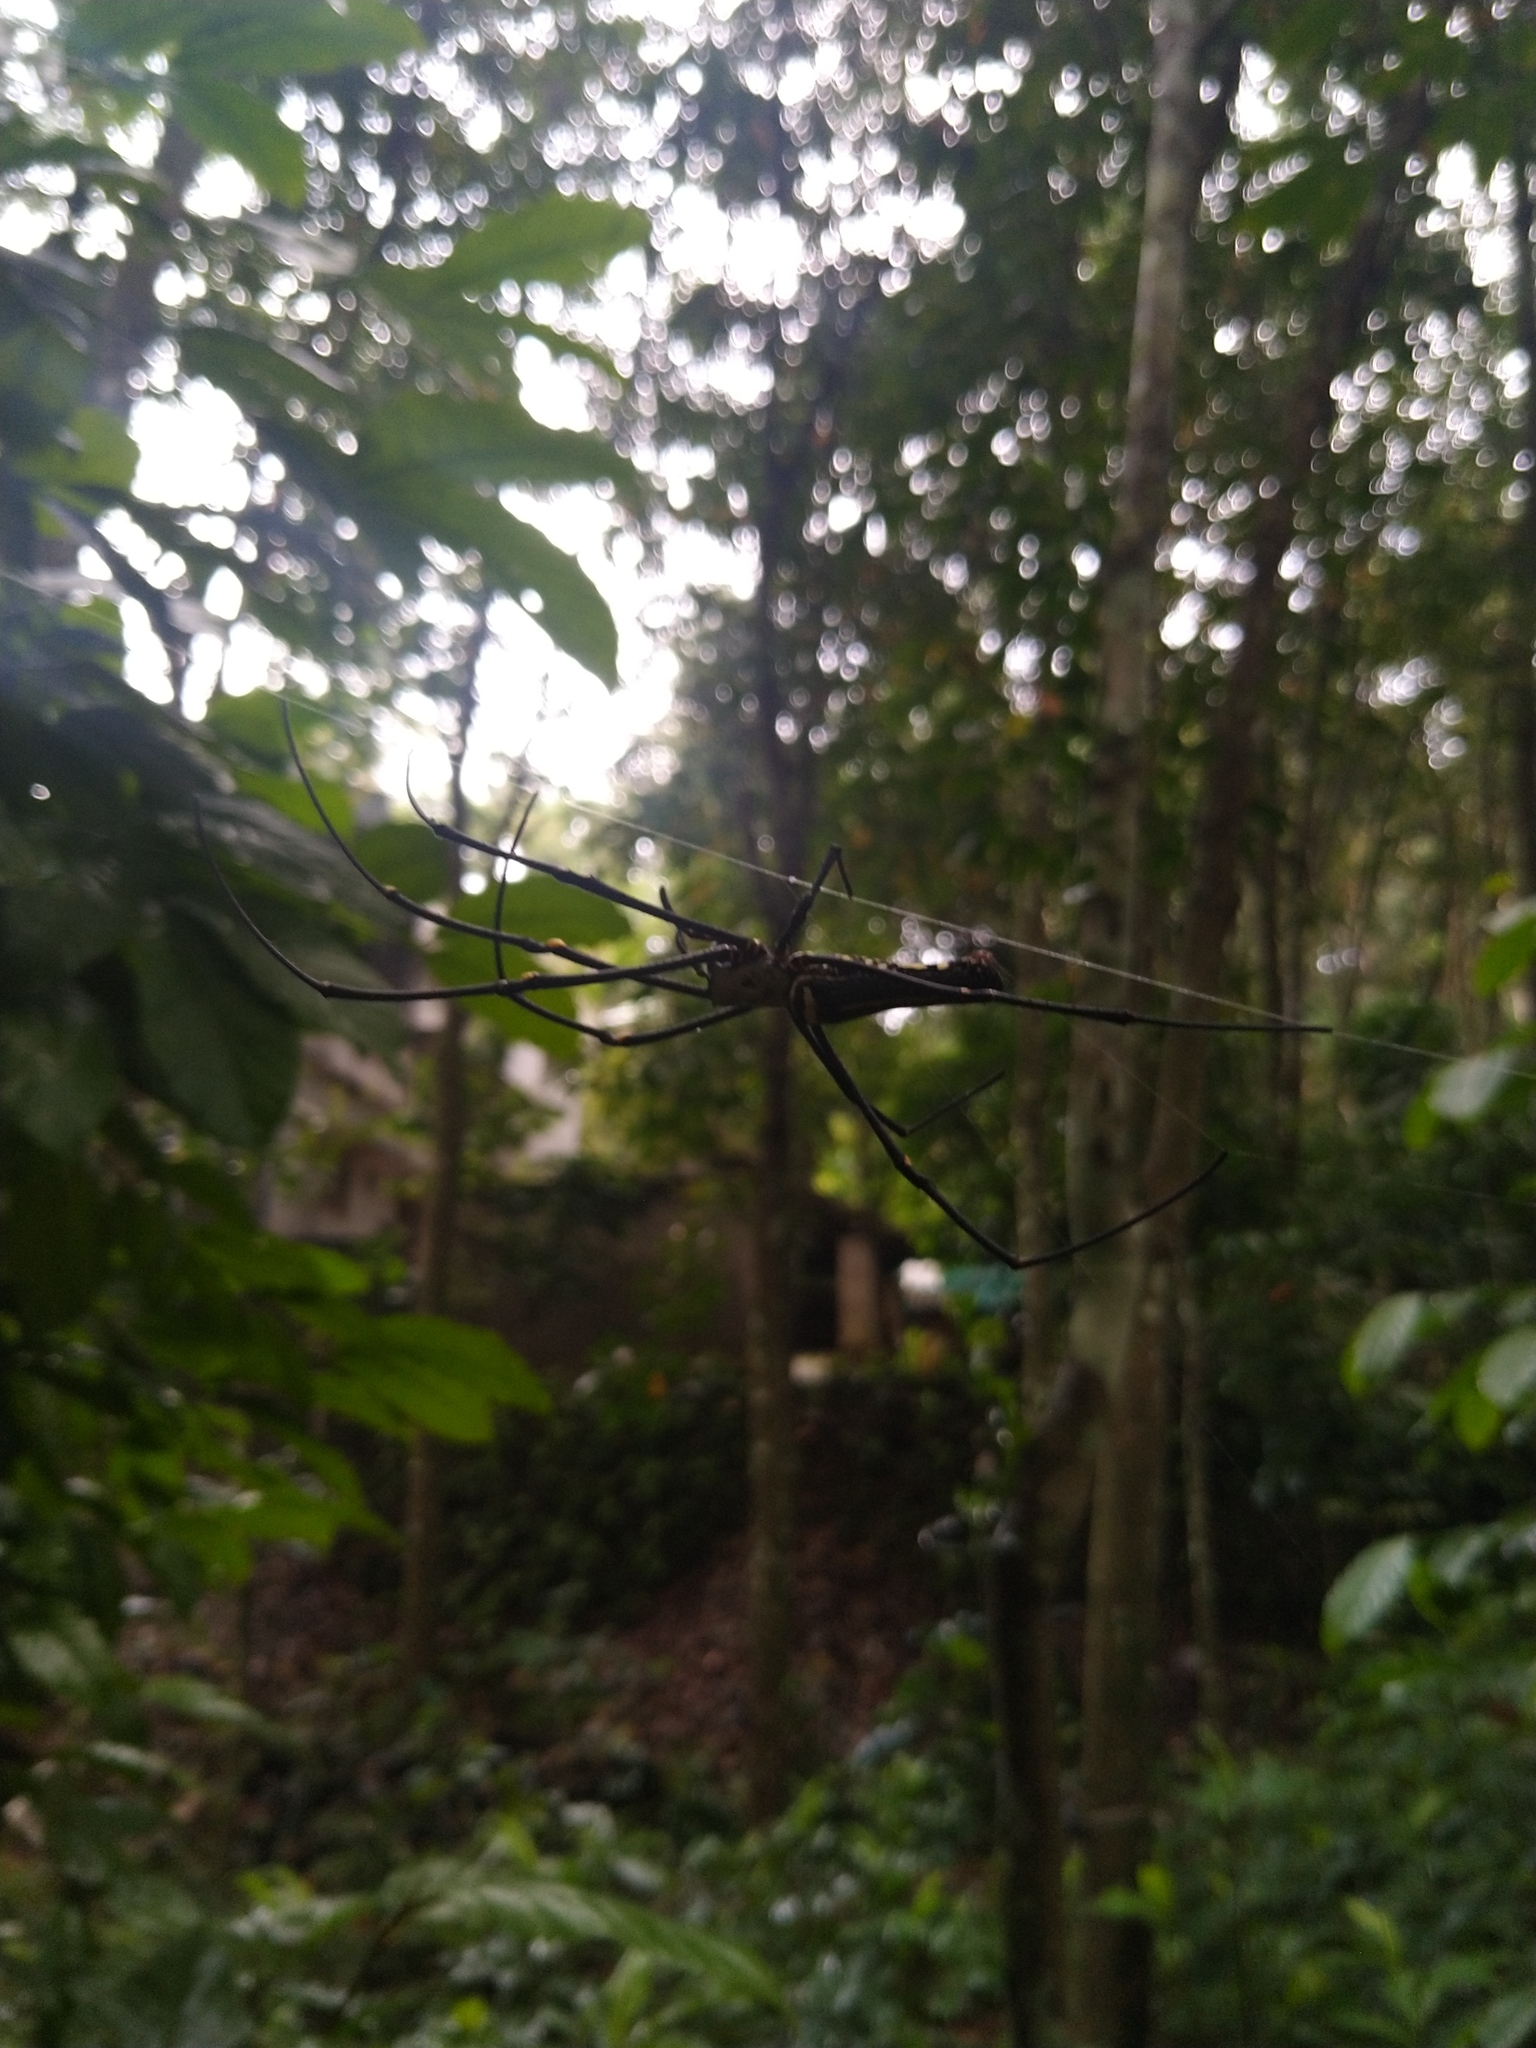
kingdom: Animalia
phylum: Arthropoda
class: Arachnida
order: Araneae
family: Araneidae
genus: Nephila
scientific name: Nephila pilipes
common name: Giant golden orb weaver
